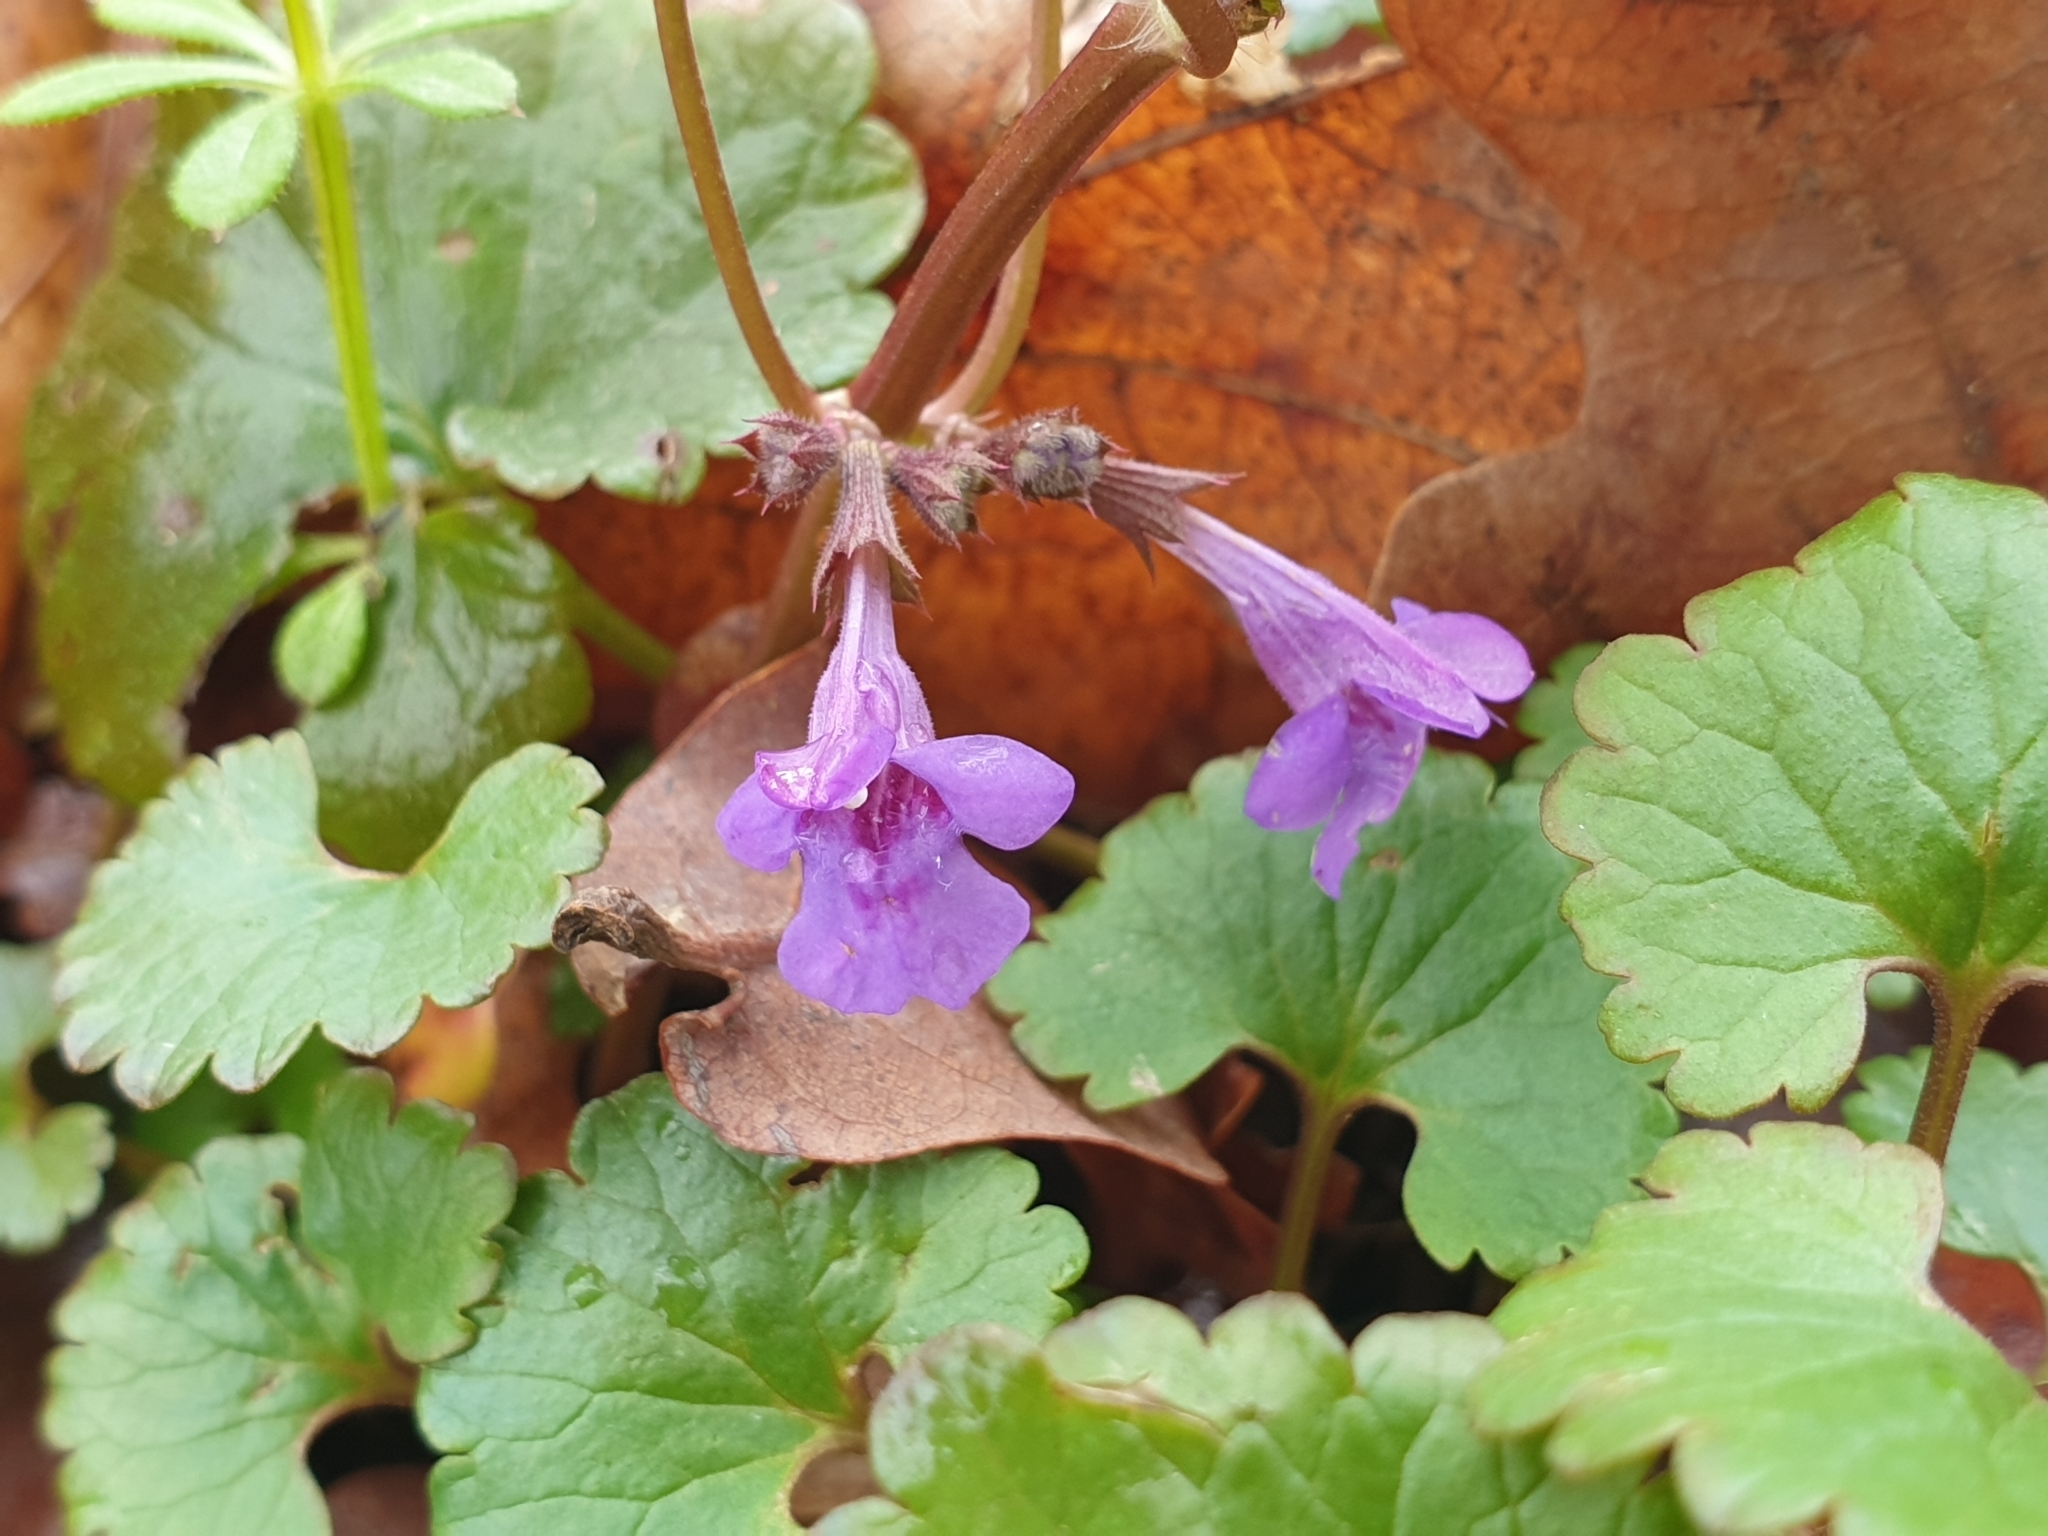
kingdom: Plantae
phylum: Tracheophyta
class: Magnoliopsida
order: Lamiales
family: Lamiaceae
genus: Glechoma
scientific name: Glechoma hederacea
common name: Ground ivy
